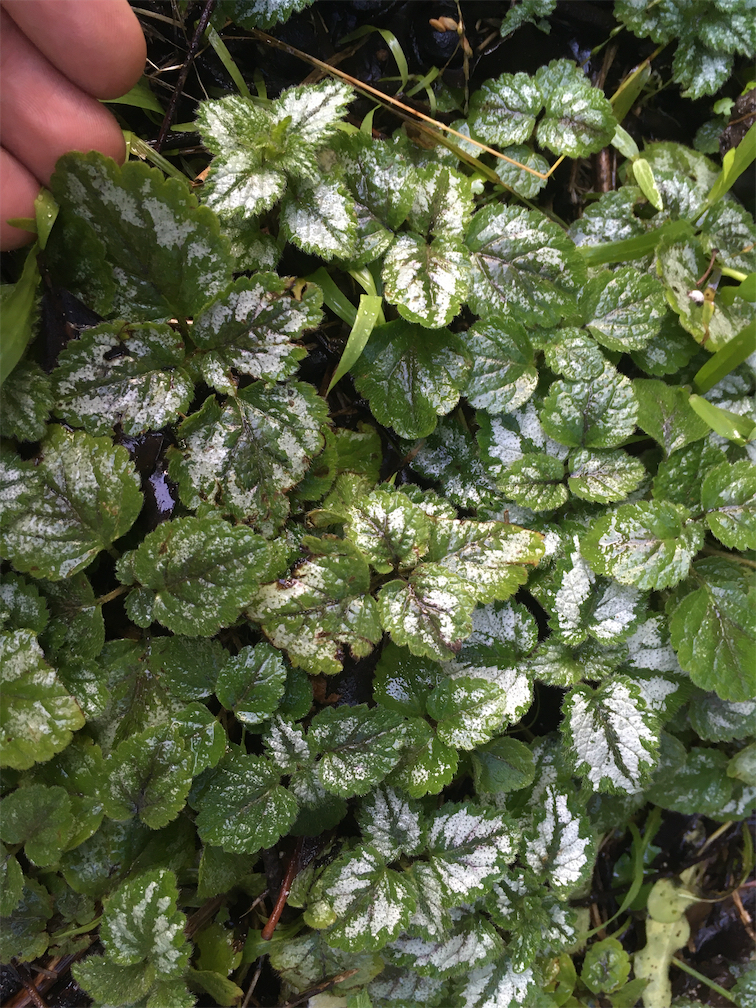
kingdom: Plantae
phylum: Tracheophyta
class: Magnoliopsida
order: Lamiales
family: Lamiaceae
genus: Lamium
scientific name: Lamium galeobdolon
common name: Yellow archangel
